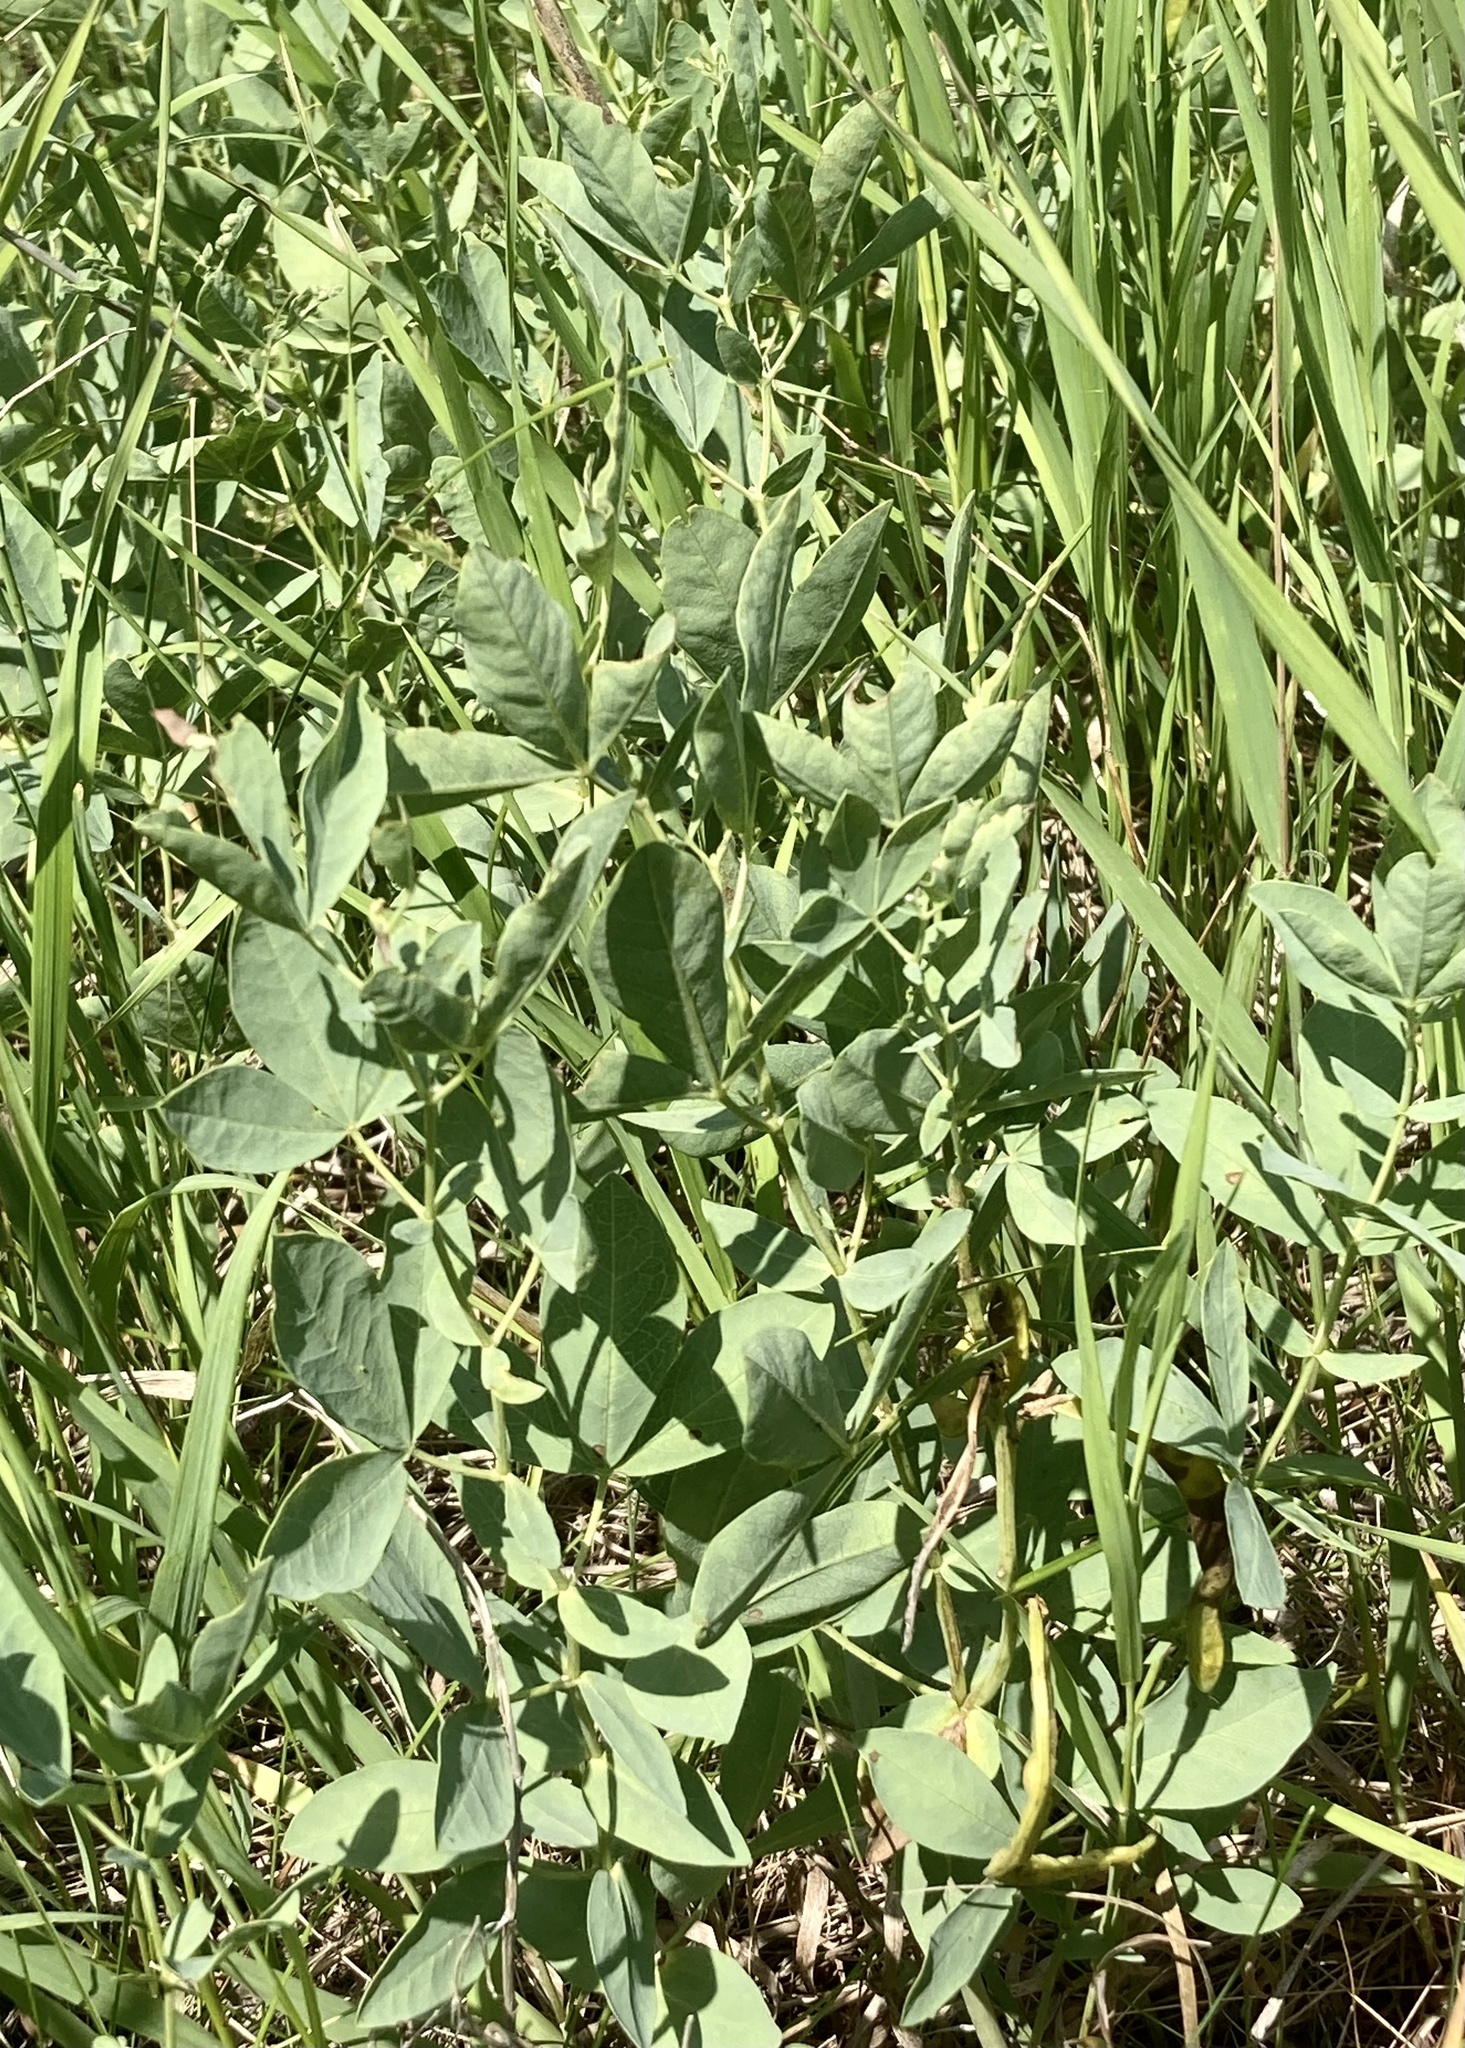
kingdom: Plantae
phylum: Tracheophyta
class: Magnoliopsida
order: Fabales
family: Fabaceae
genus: Thermopsis
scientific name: Thermopsis rhombifolia
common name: Circle-pod-pea
